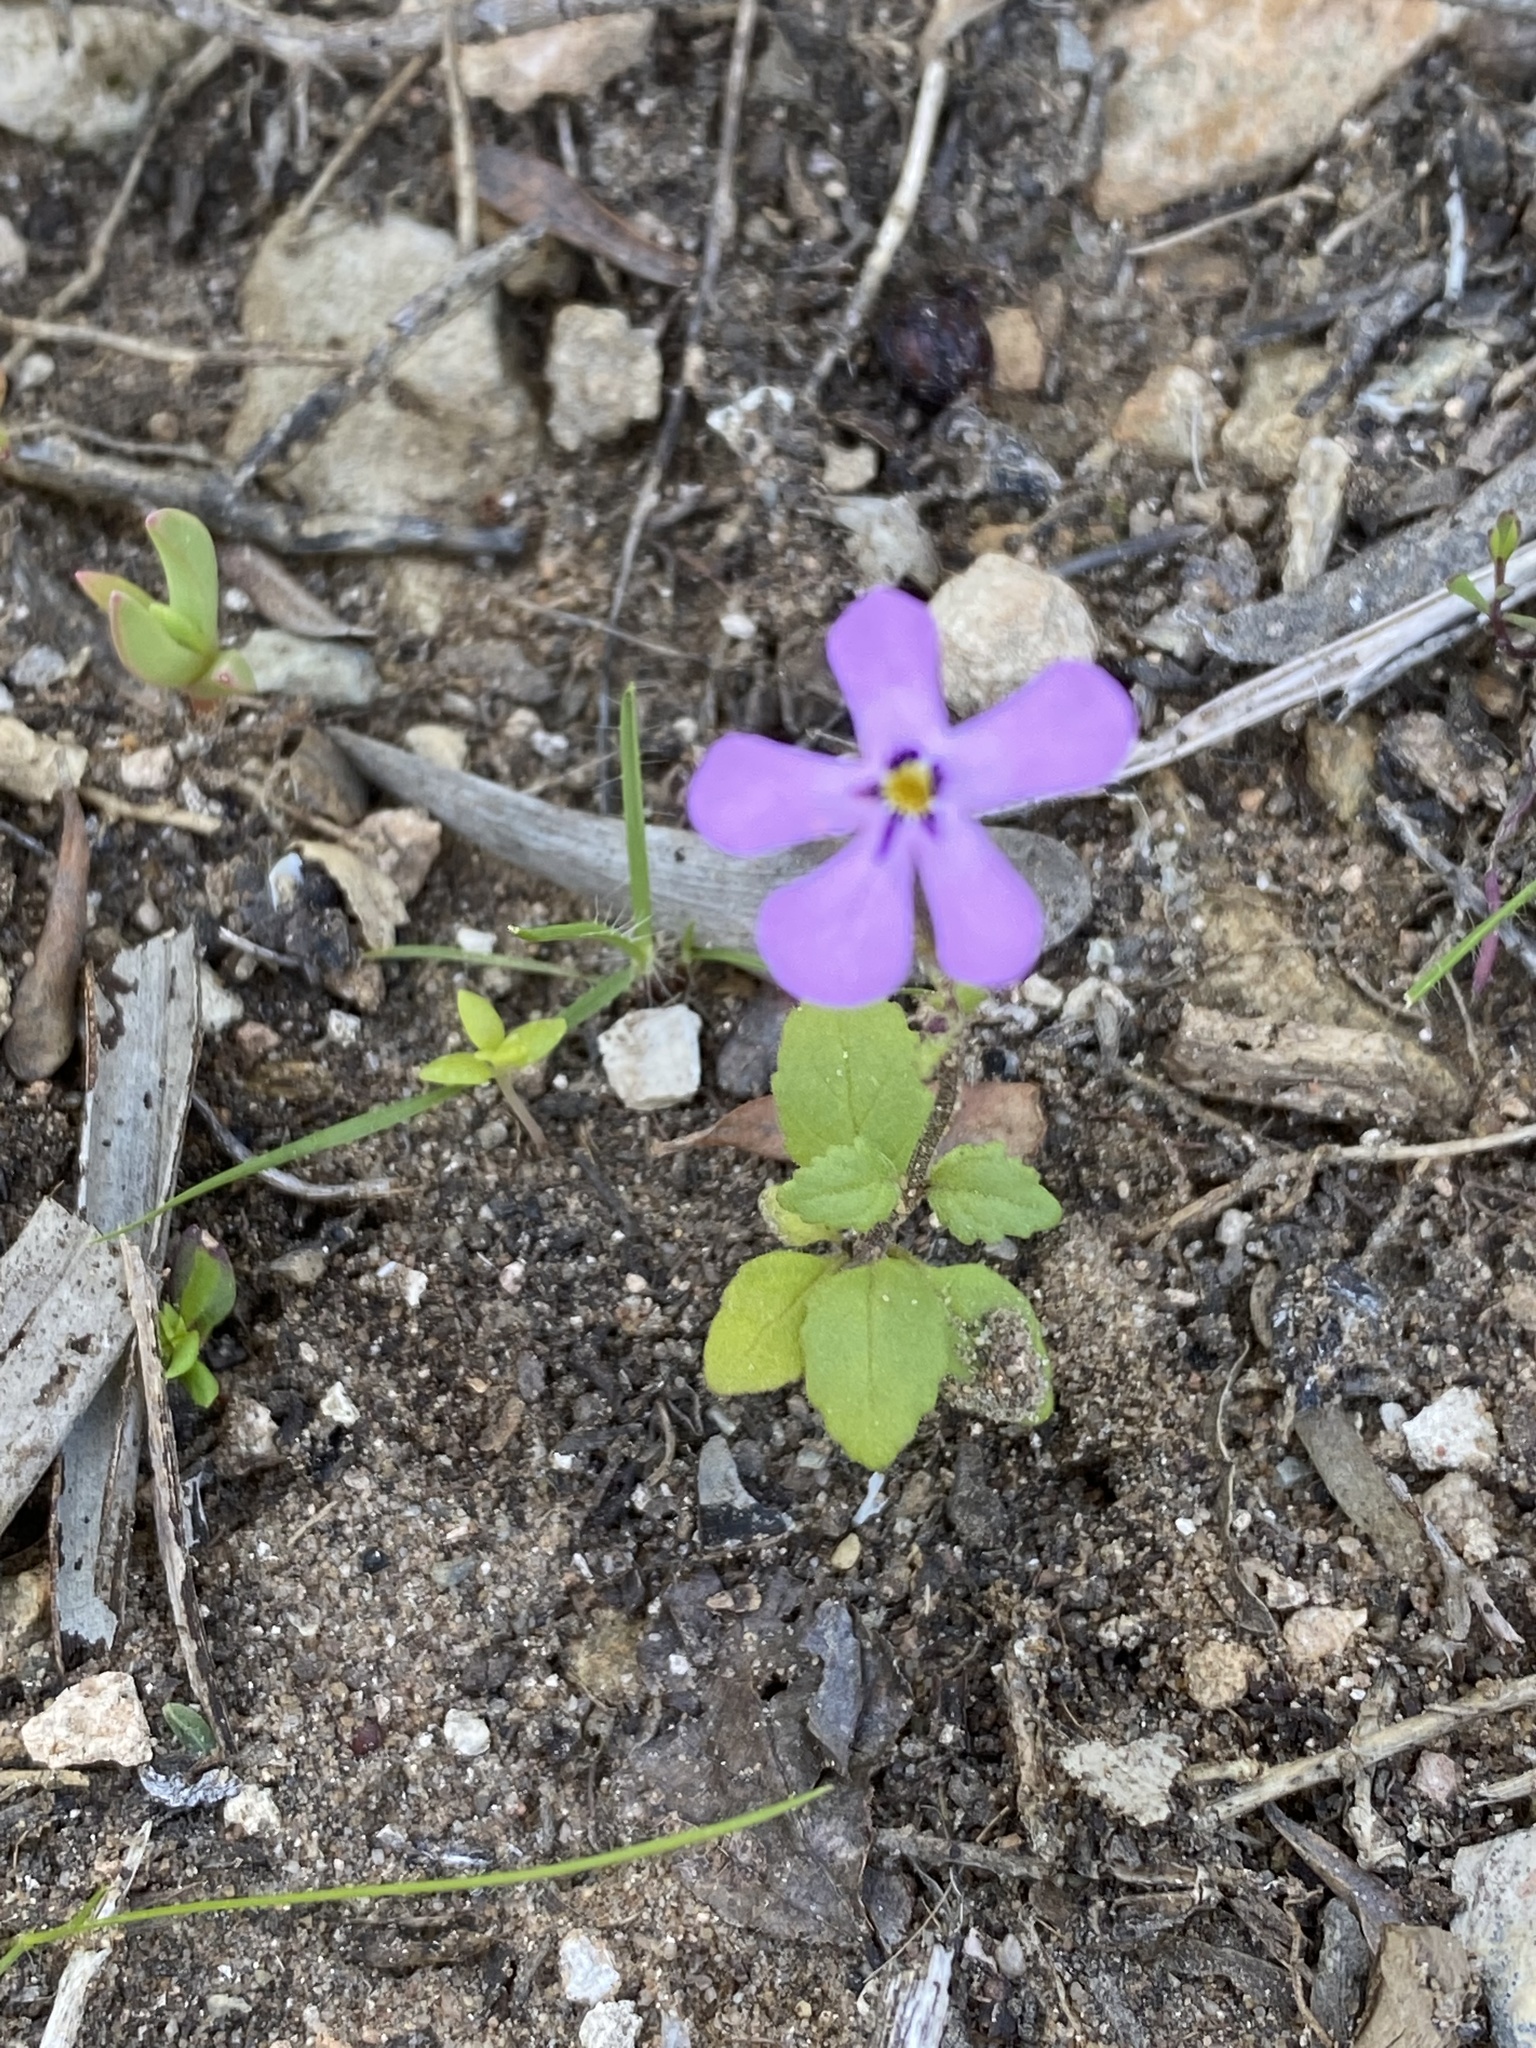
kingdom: Plantae
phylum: Tracheophyta
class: Magnoliopsida
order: Lamiales
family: Scrophulariaceae
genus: Lyperia
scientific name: Lyperia violacea
